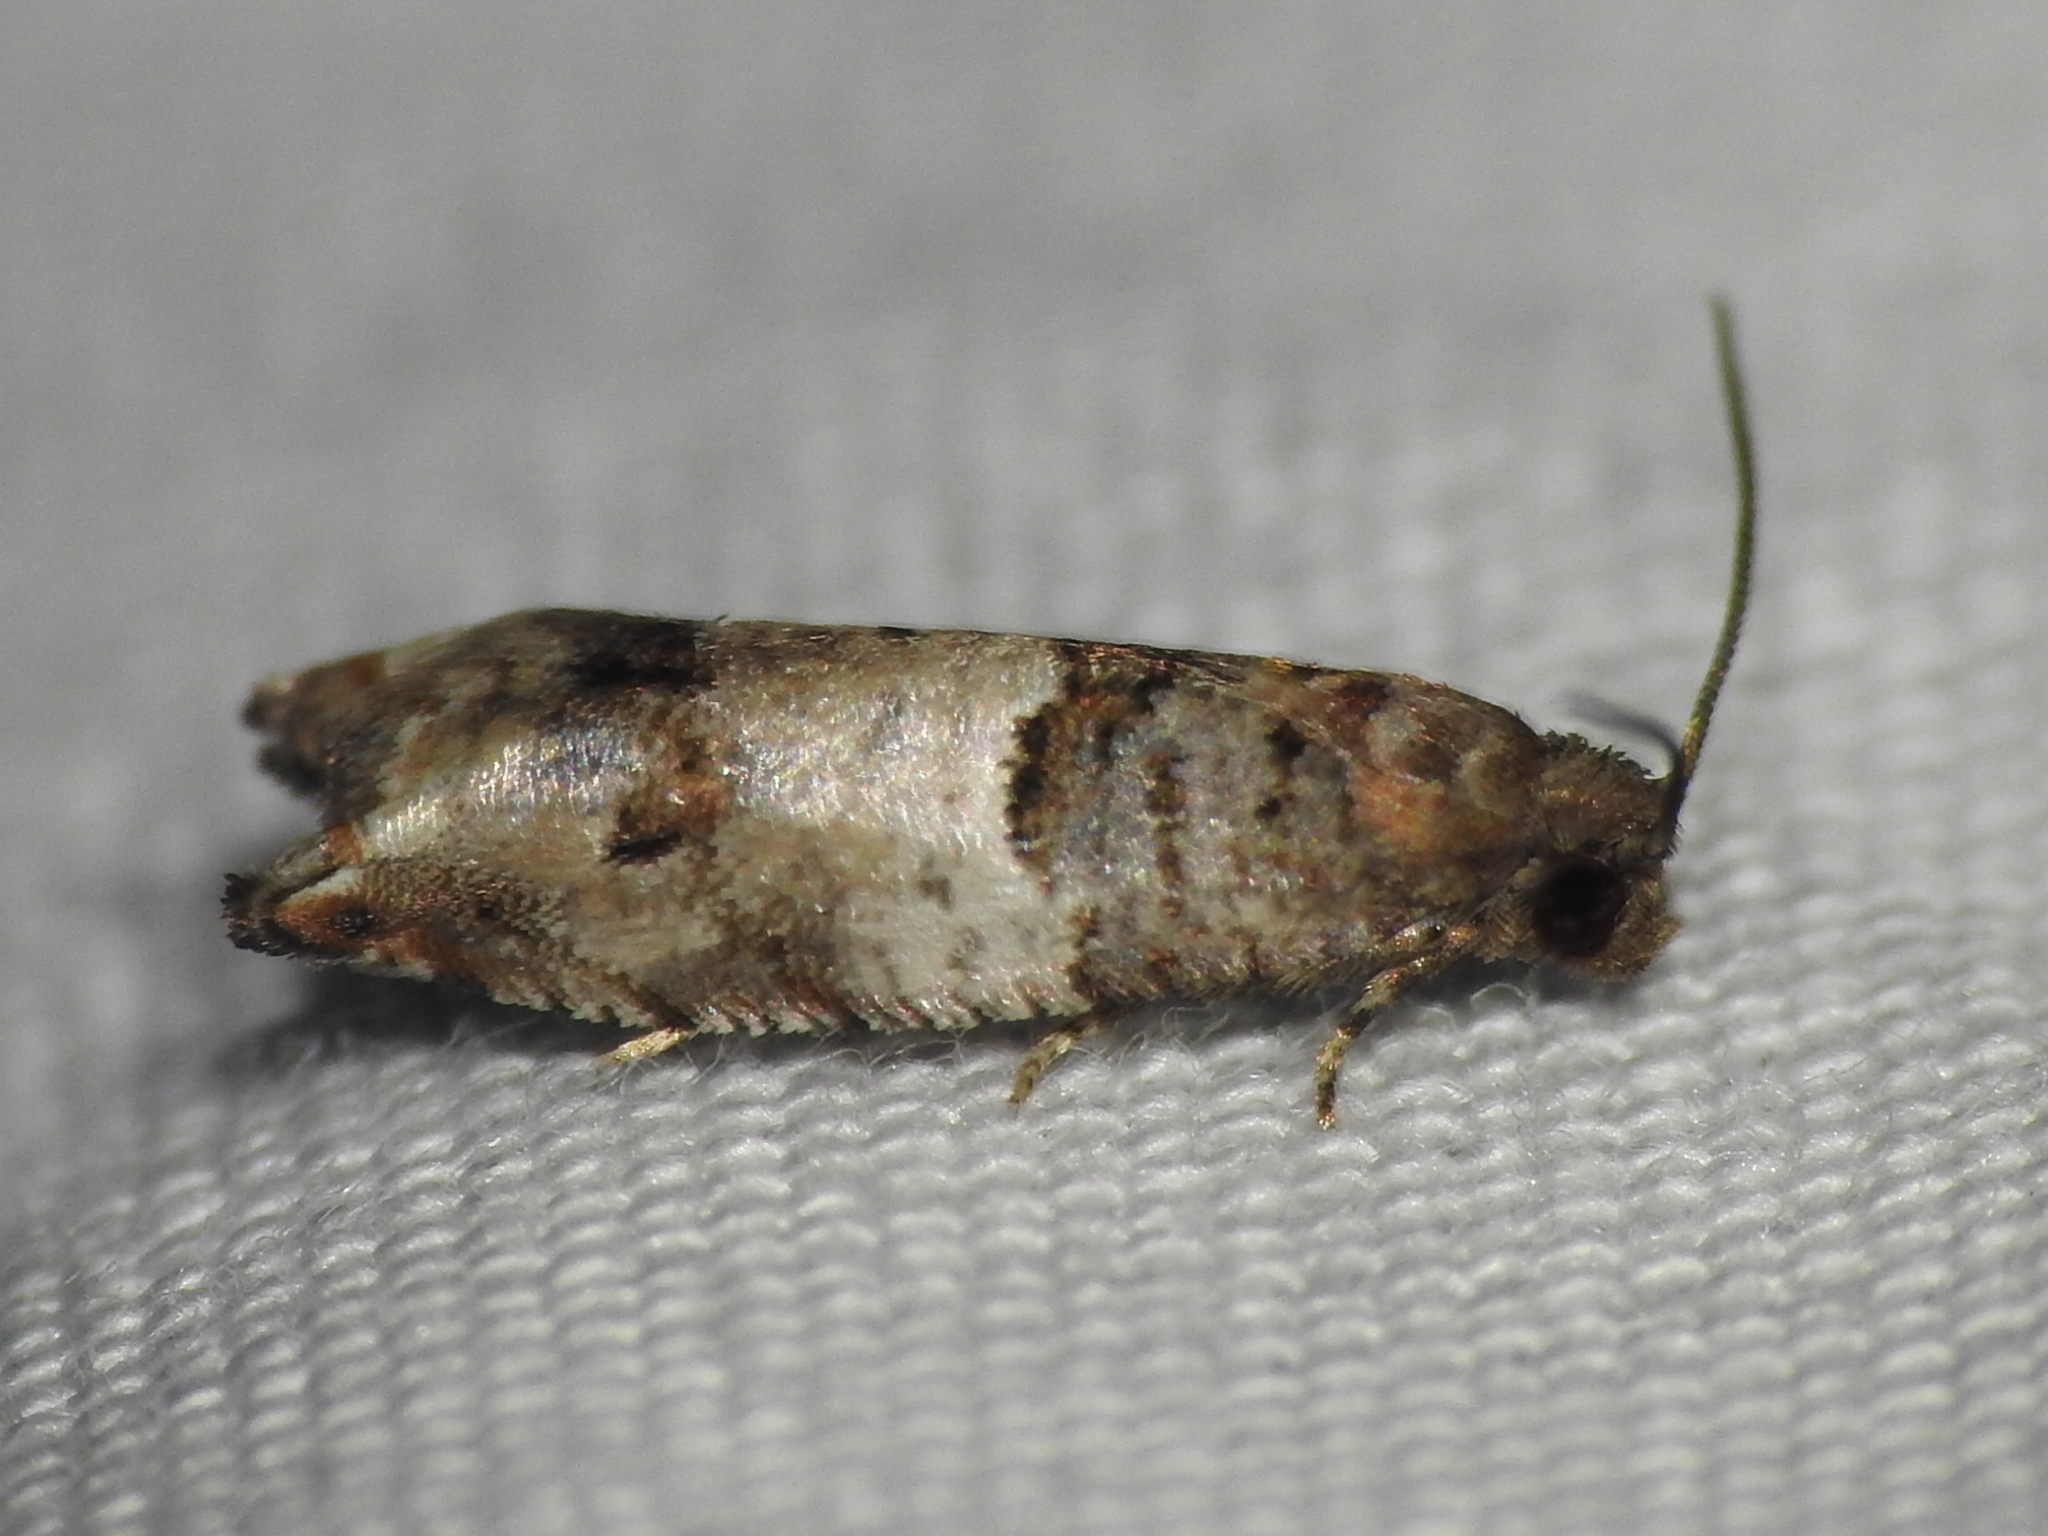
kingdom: Animalia
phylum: Arthropoda
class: Insecta
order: Lepidoptera
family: Tortricidae
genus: Rhopobota
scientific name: Rhopobota dietziana
